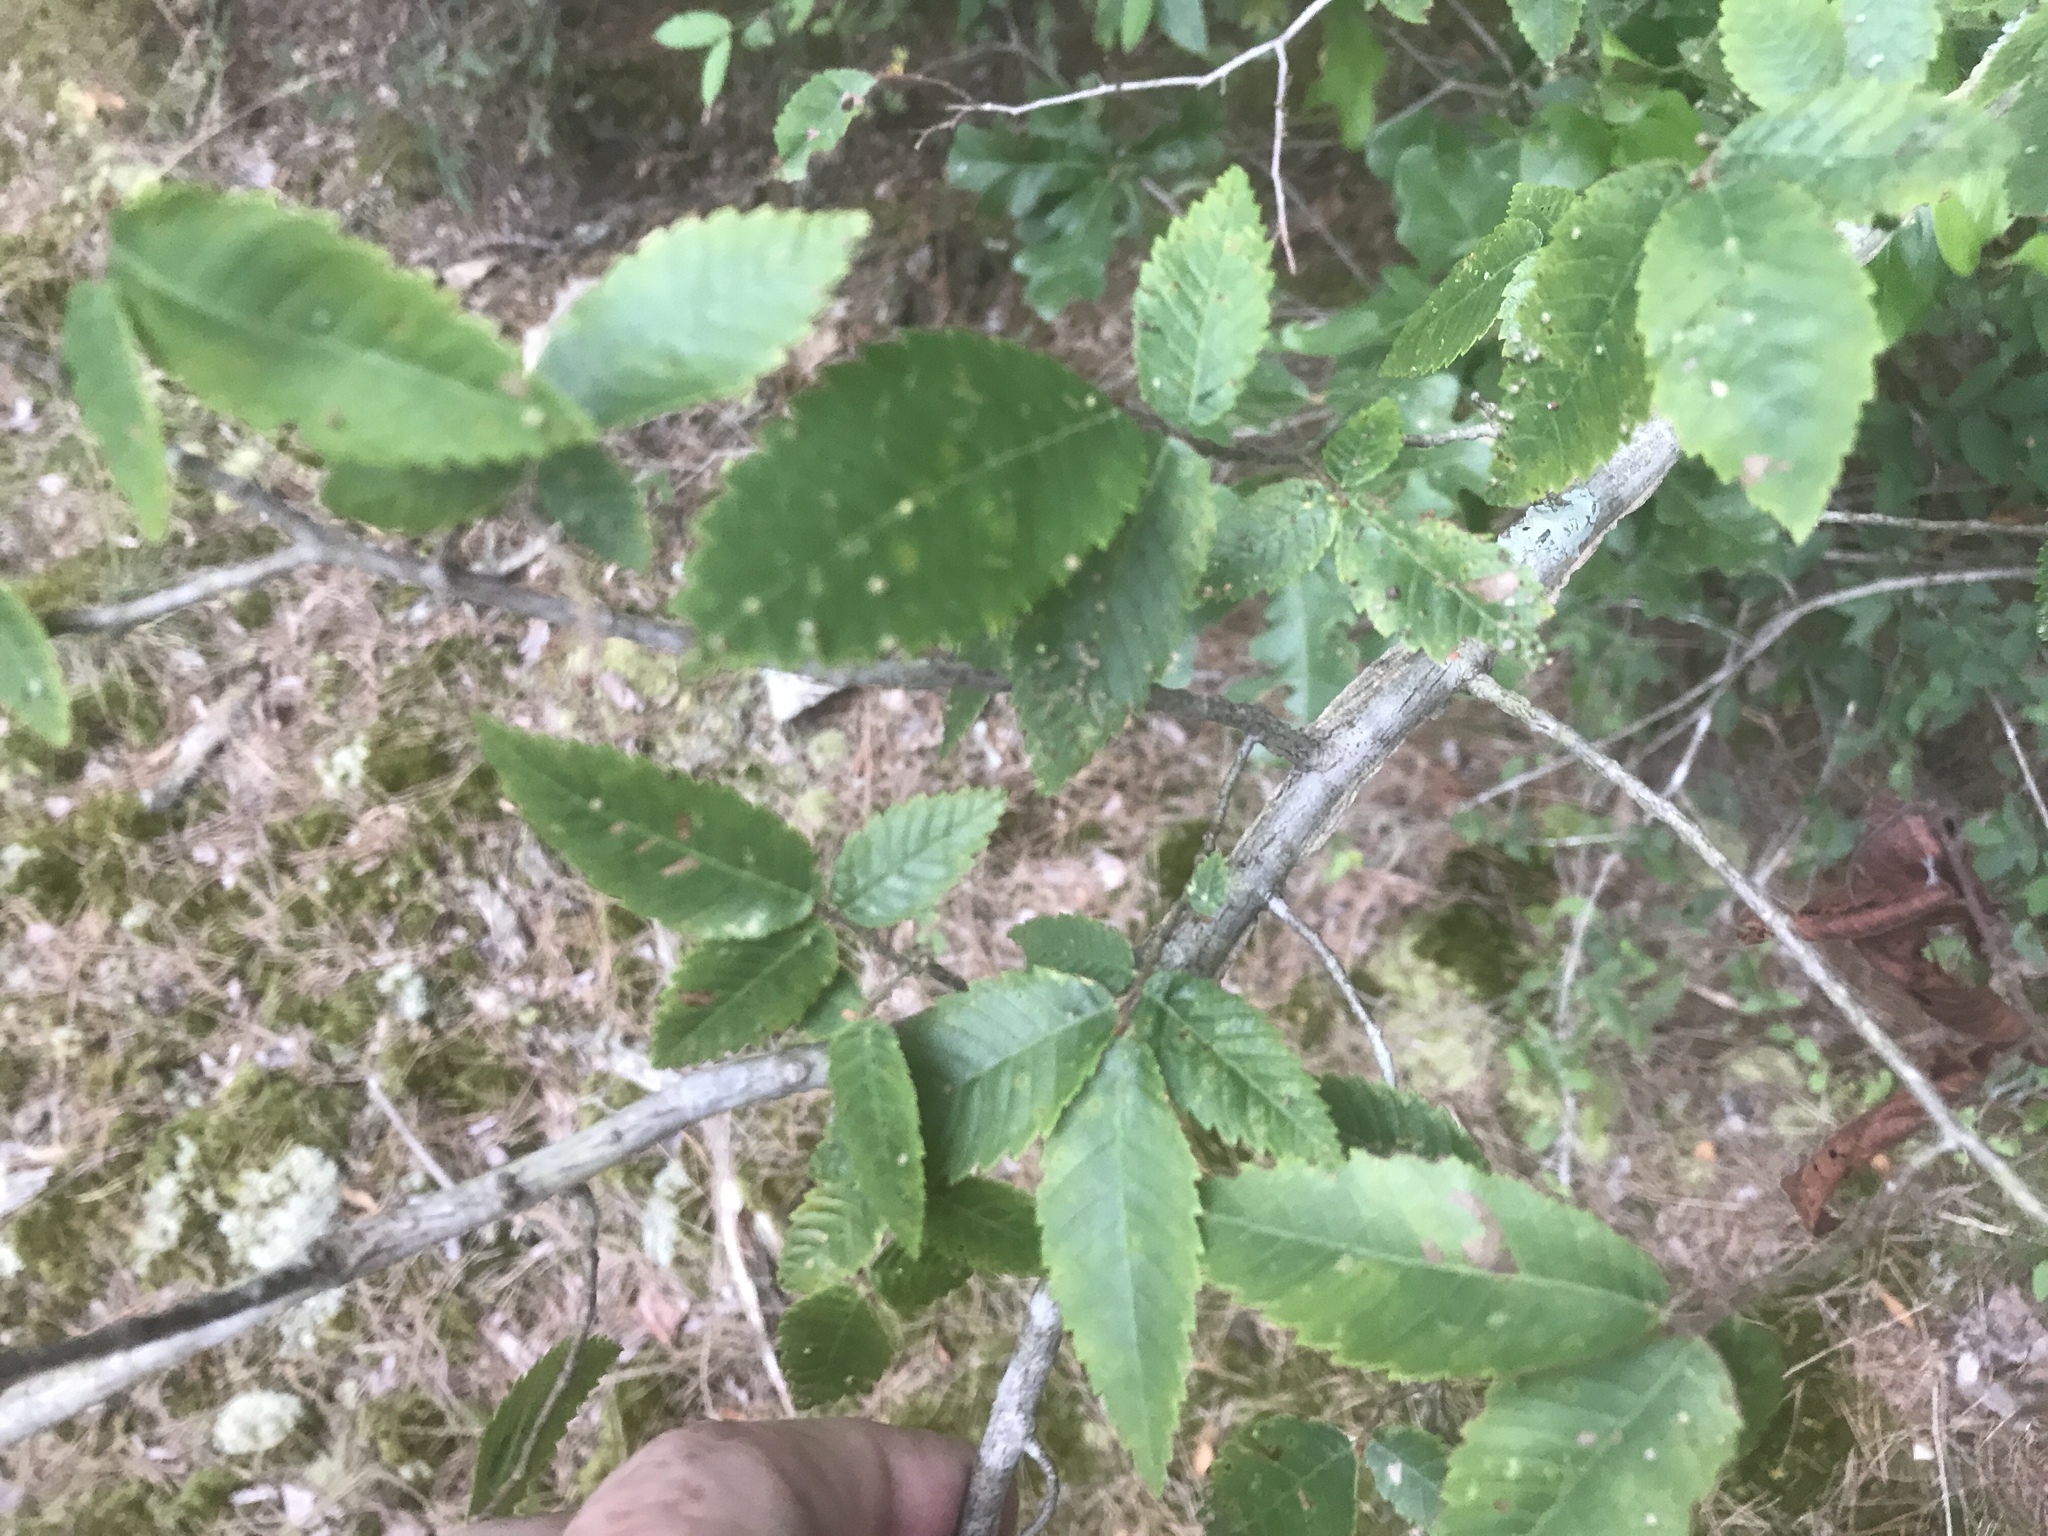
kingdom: Plantae
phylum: Tracheophyta
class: Magnoliopsida
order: Rosales
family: Ulmaceae
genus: Ulmus
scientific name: Ulmus alata
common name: Winged elm
